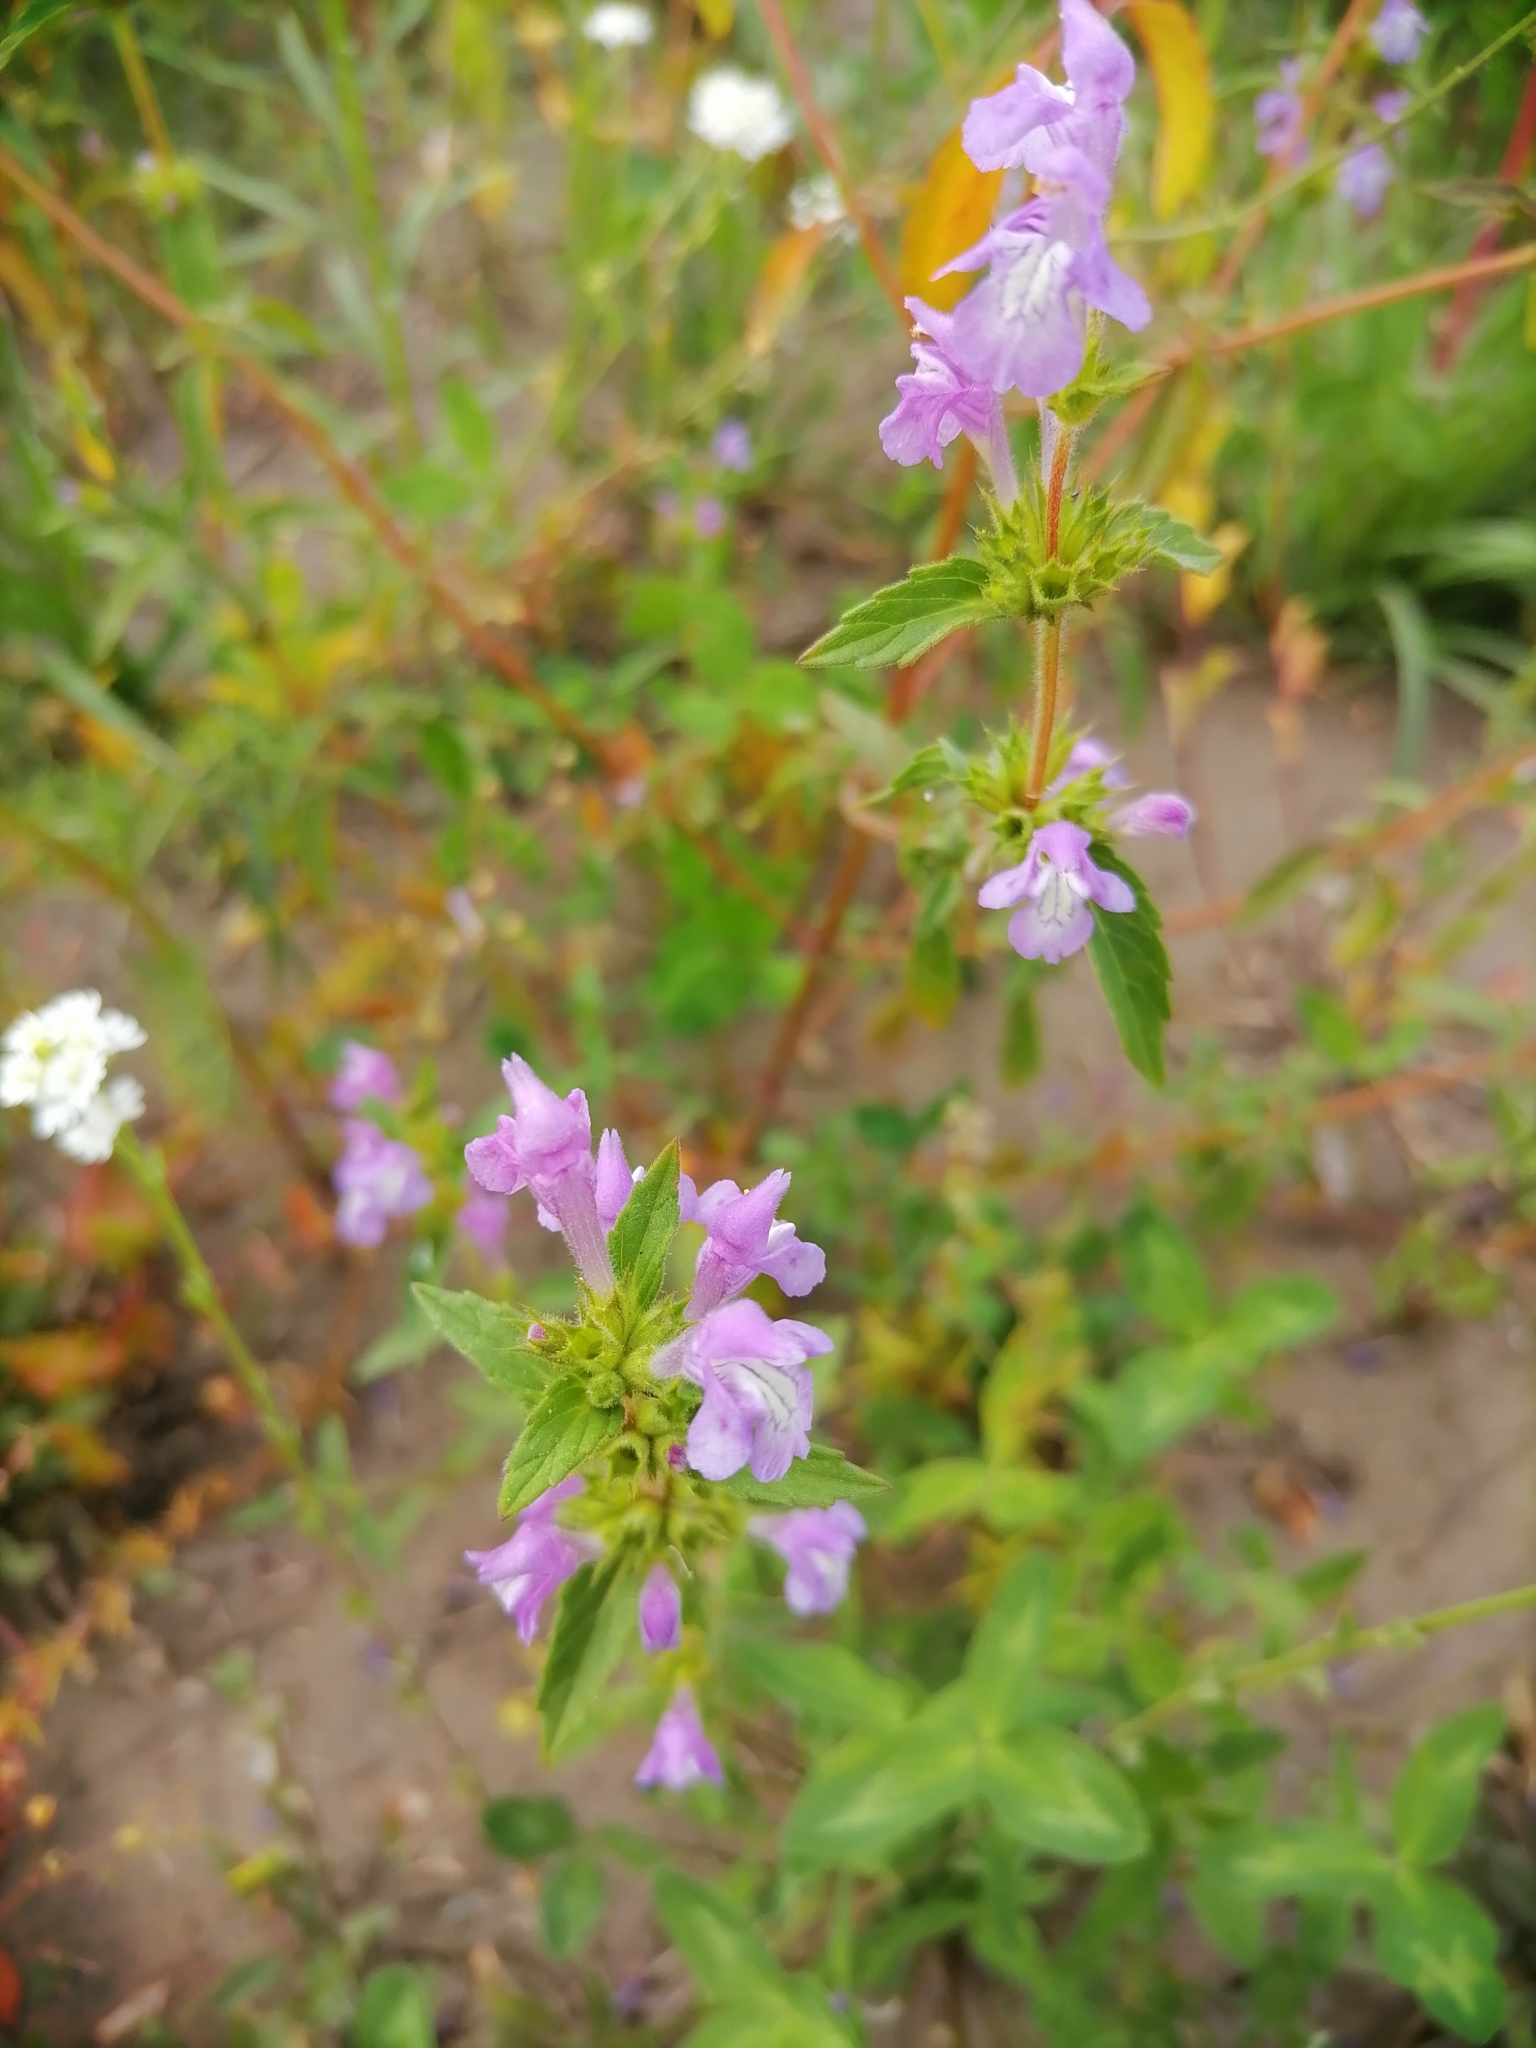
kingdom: Plantae
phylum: Tracheophyta
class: Magnoliopsida
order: Lamiales
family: Lamiaceae
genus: Galeopsis
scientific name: Galeopsis ladanum
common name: Broad-leaved hemp-nettle
